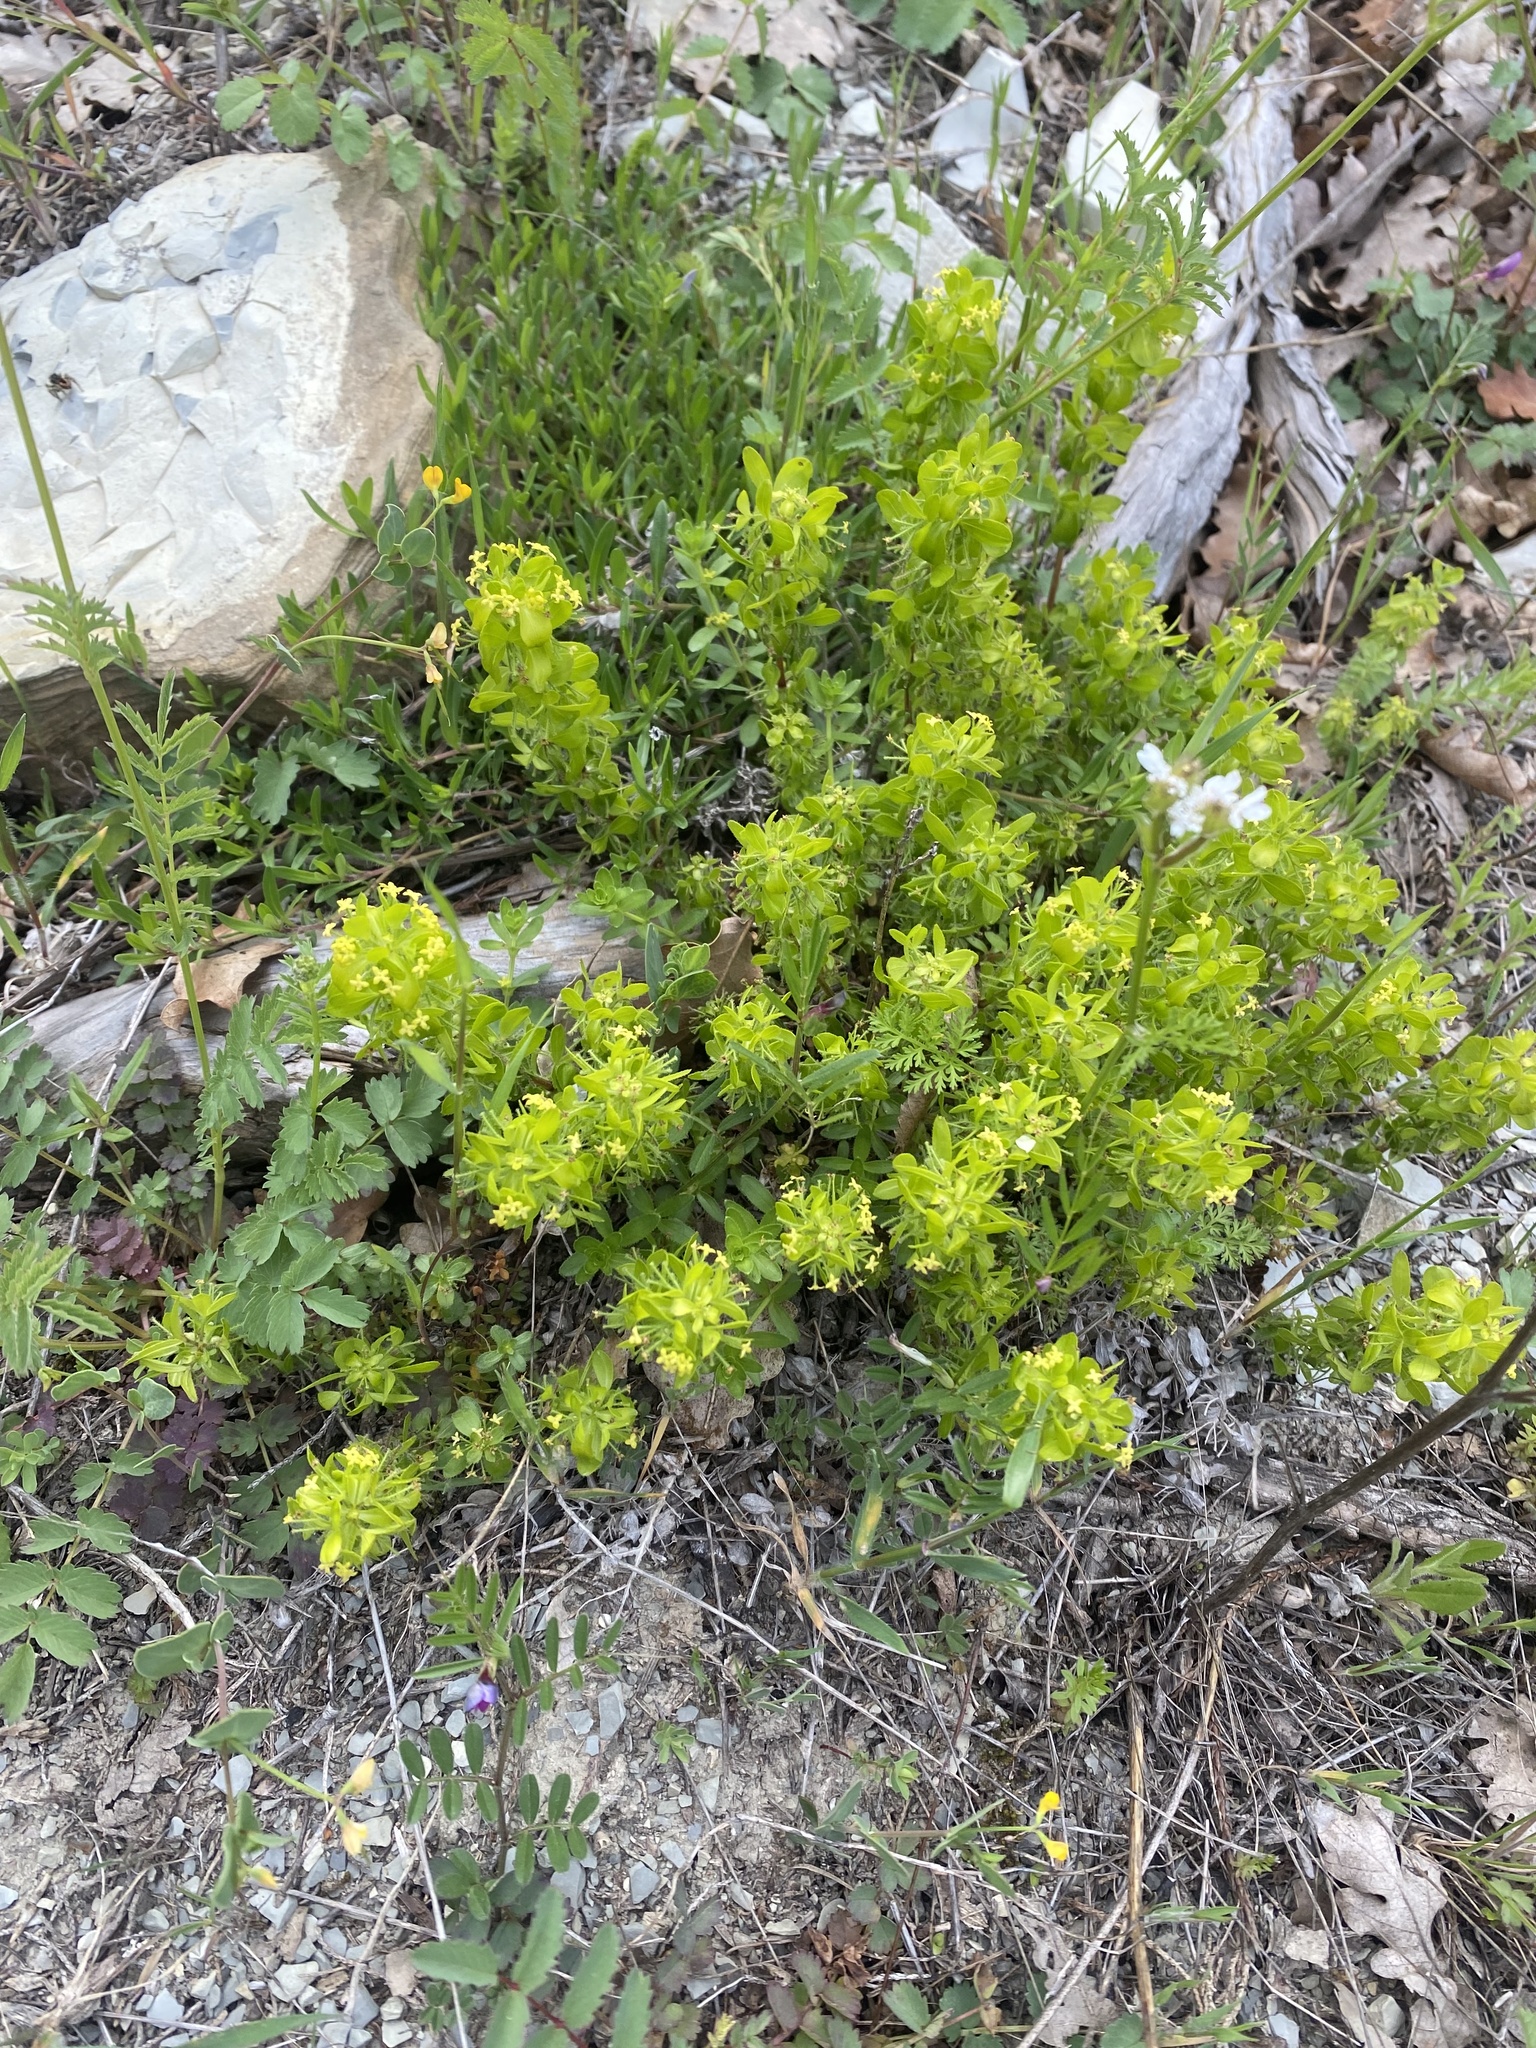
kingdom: Plantae
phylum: Tracheophyta
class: Magnoliopsida
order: Gentianales
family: Rubiaceae
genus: Cruciata
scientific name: Cruciata taurica
